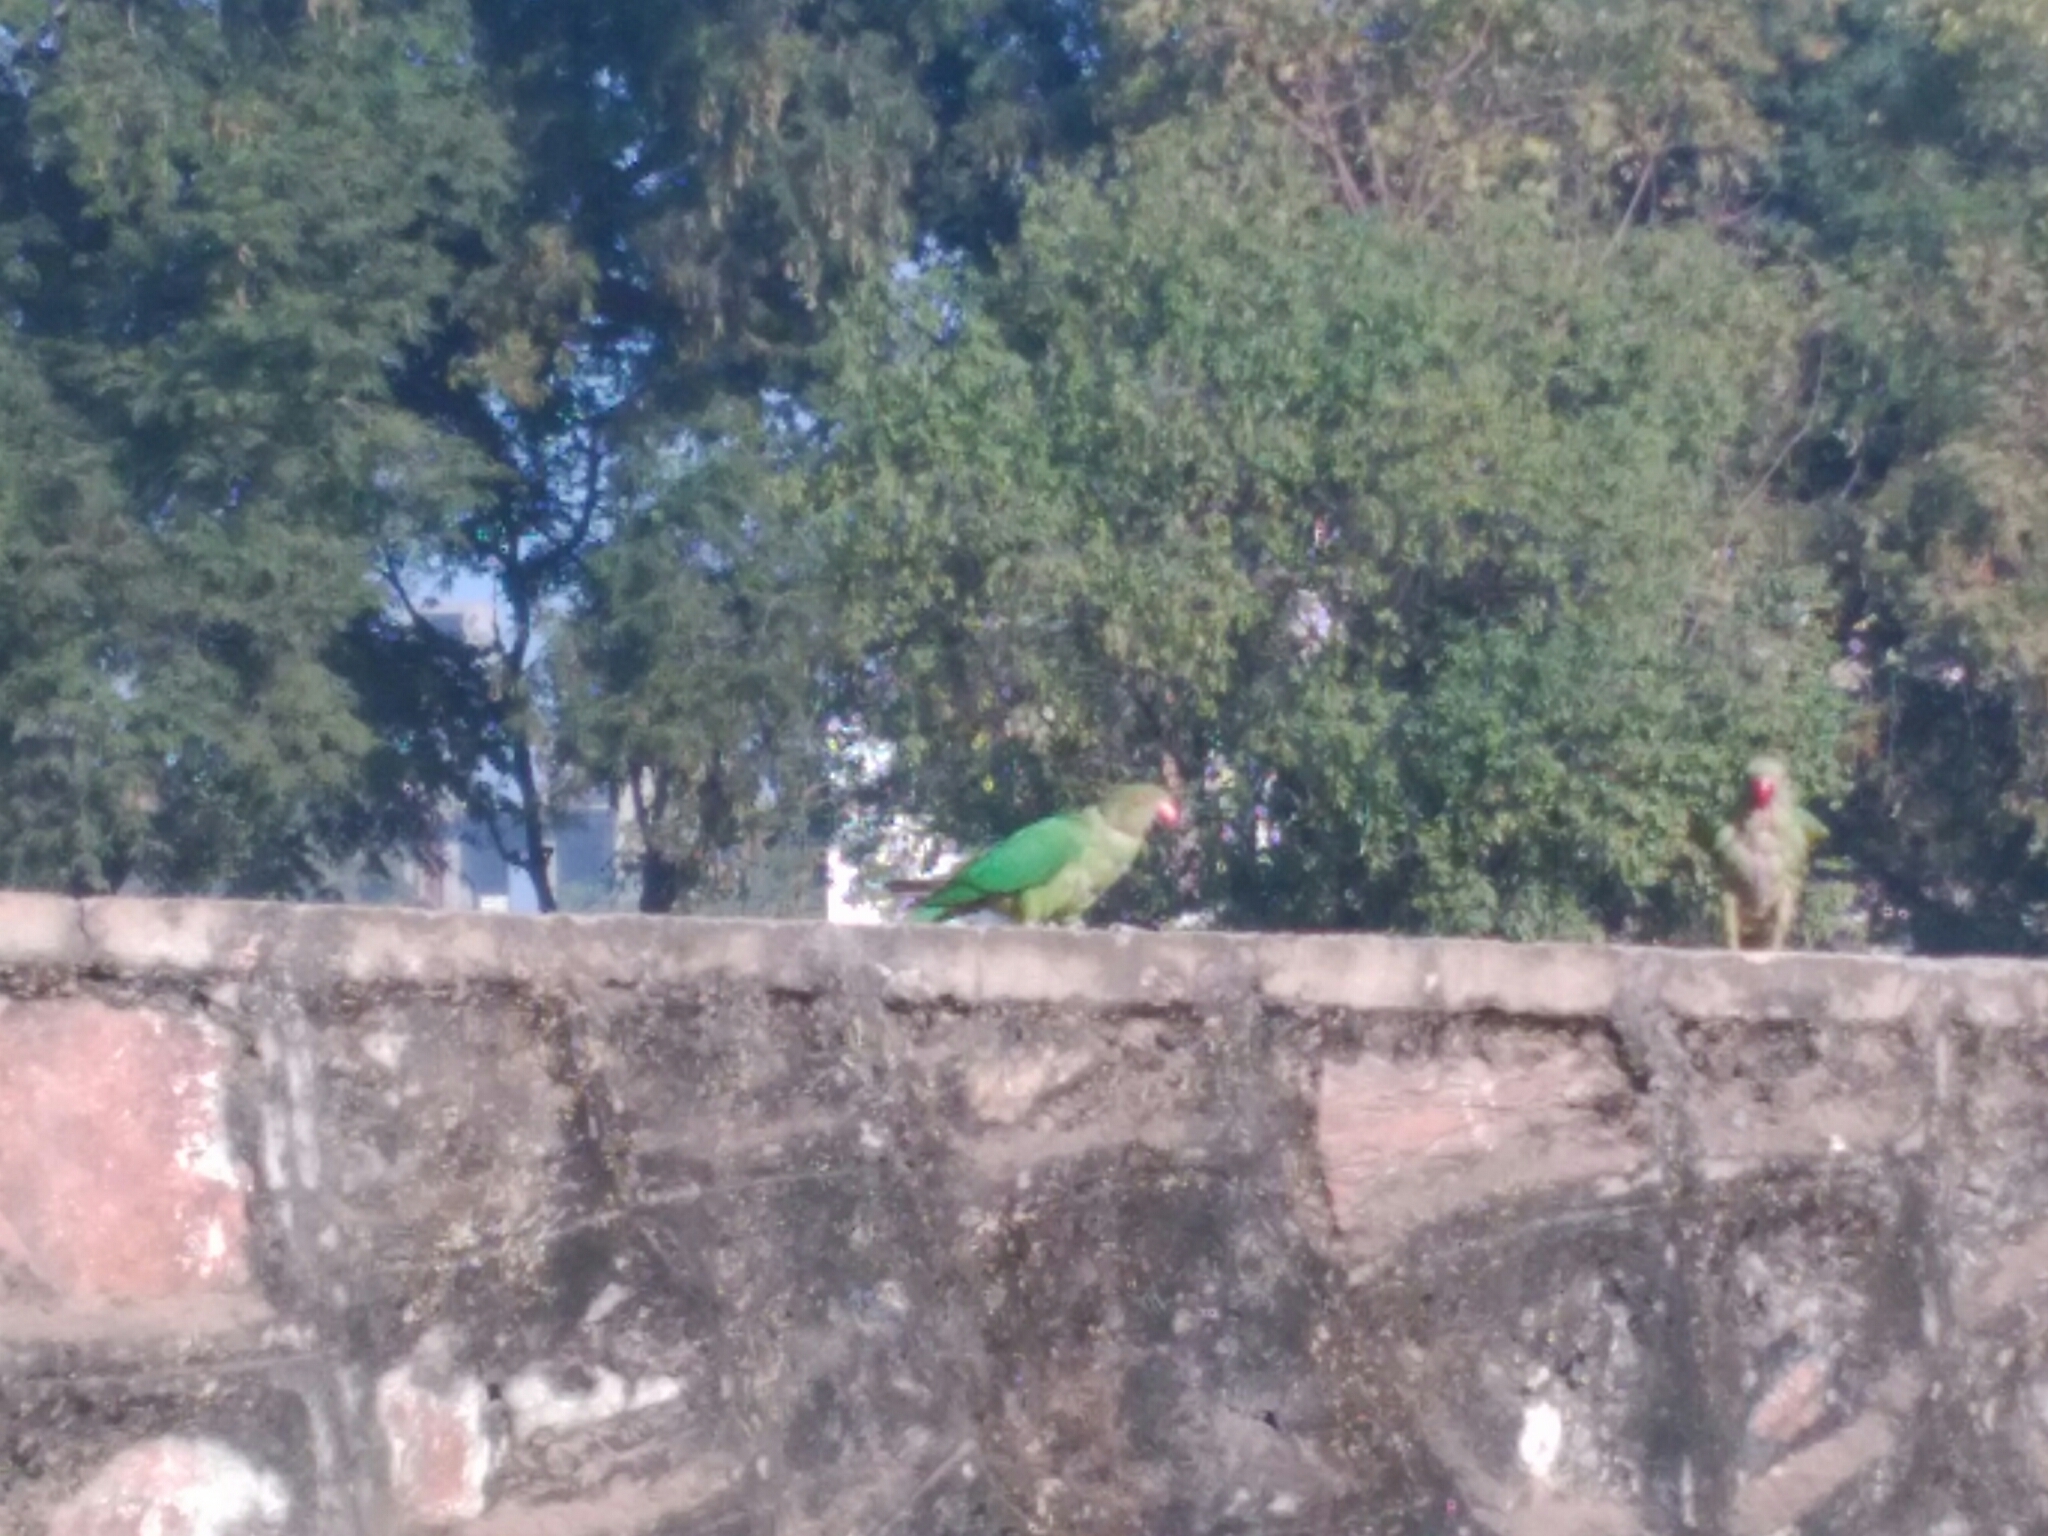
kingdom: Animalia
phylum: Chordata
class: Aves
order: Psittaciformes
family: Psittacidae
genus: Psittacula
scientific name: Psittacula eupatria
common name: Alexandrine parakeet
